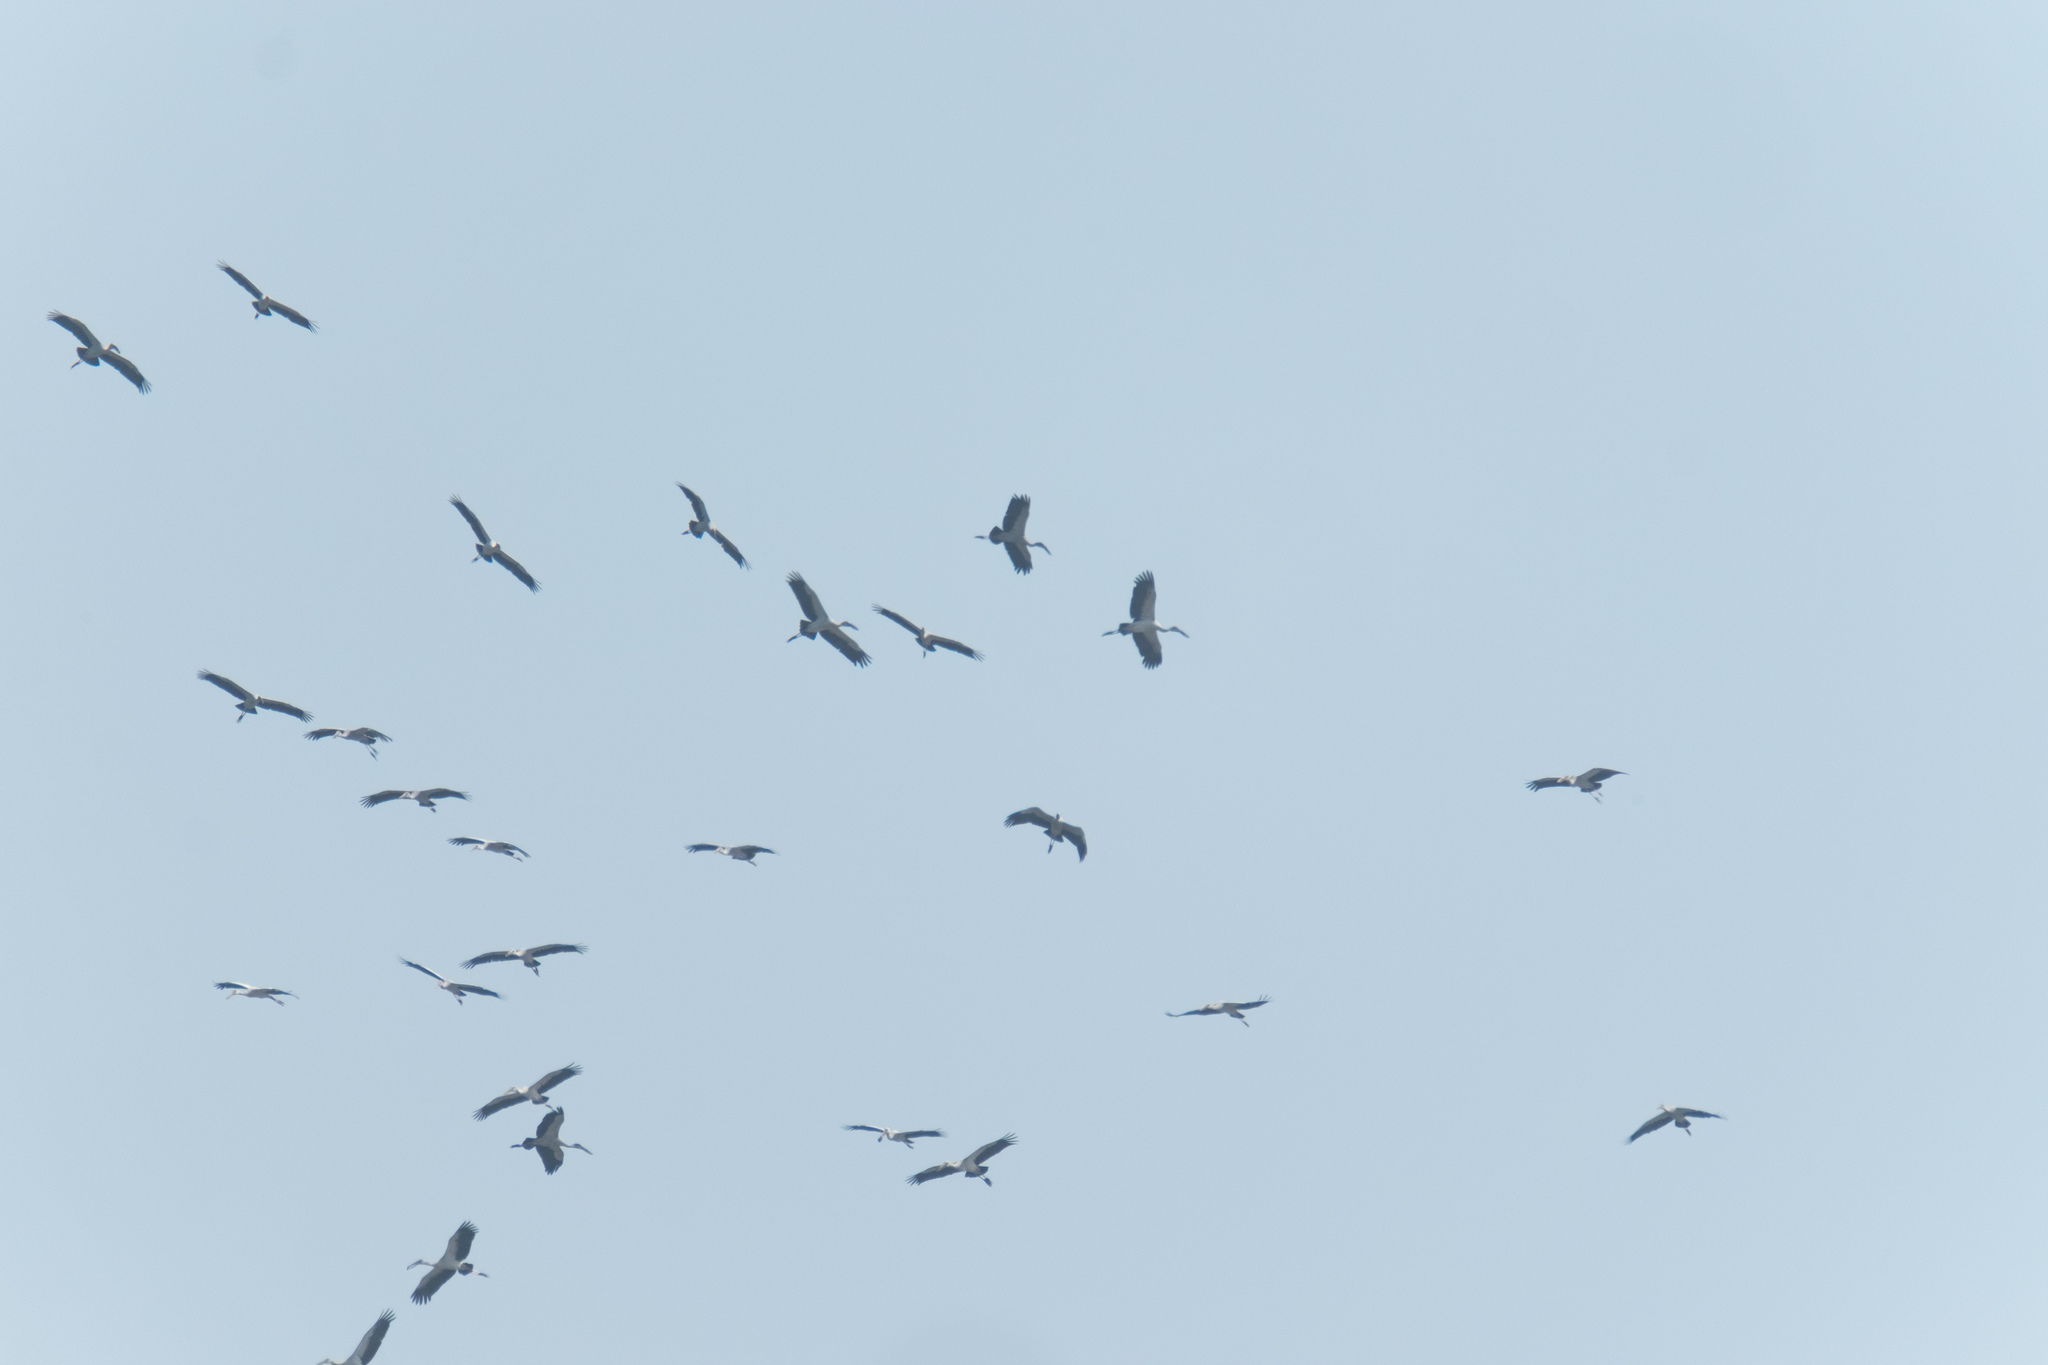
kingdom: Animalia
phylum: Chordata
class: Aves
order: Ciconiiformes
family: Ciconiidae
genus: Anastomus
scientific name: Anastomus oscitans
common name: Asian openbill
